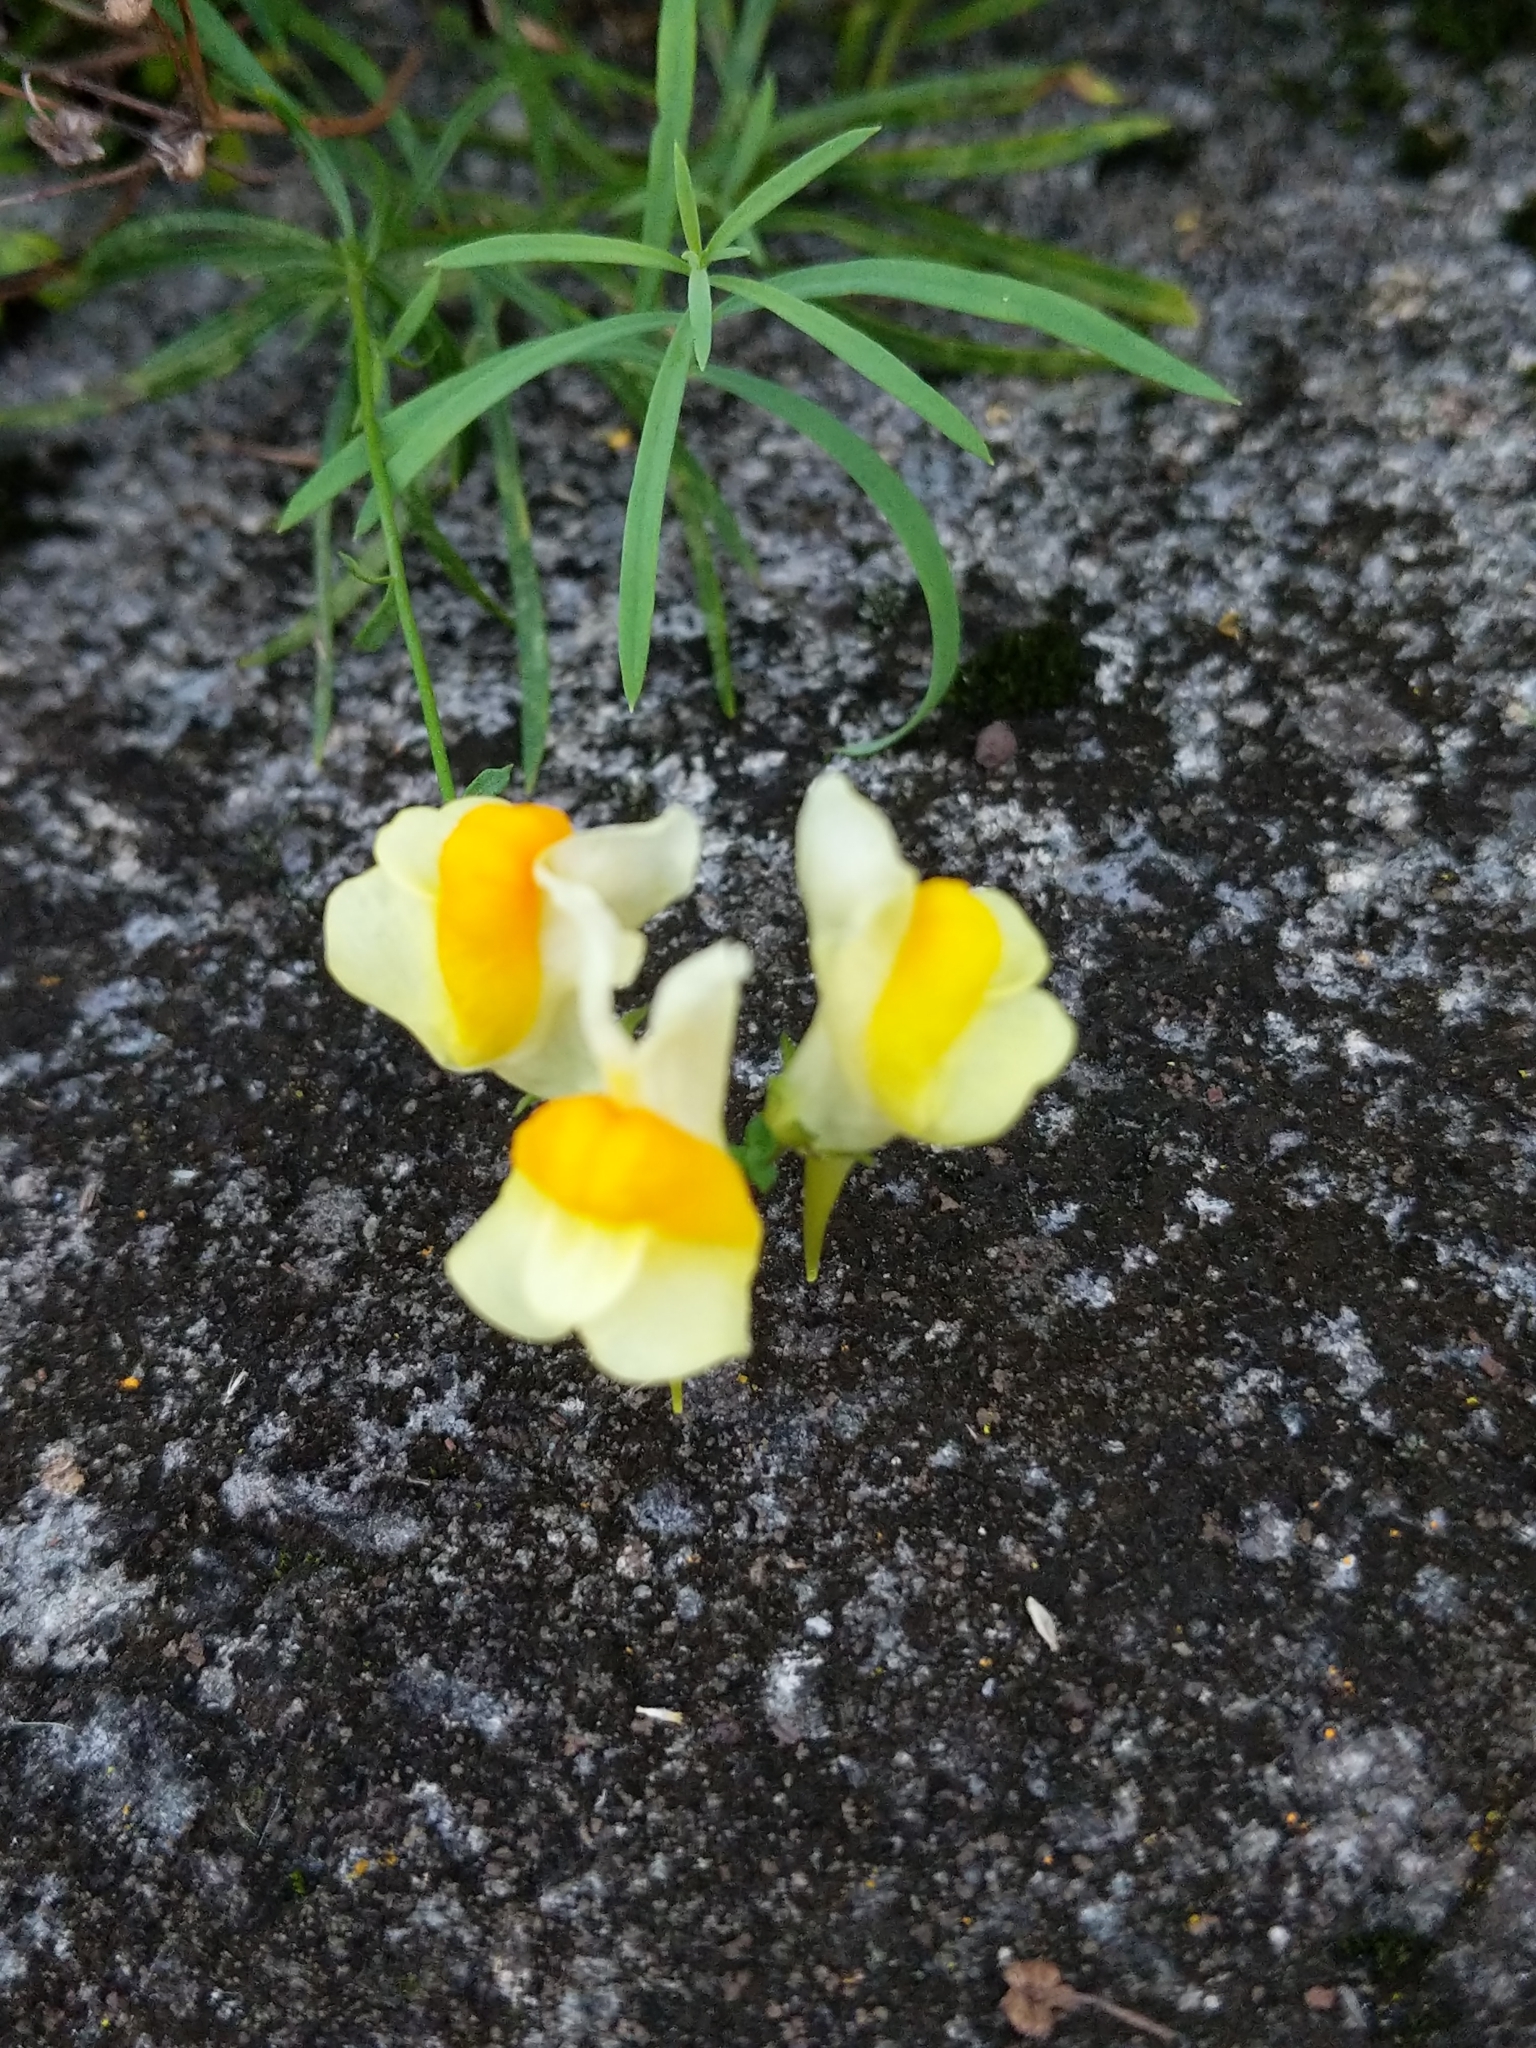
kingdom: Plantae
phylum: Tracheophyta
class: Magnoliopsida
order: Lamiales
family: Plantaginaceae
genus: Linaria
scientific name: Linaria vulgaris
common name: Butter and eggs
